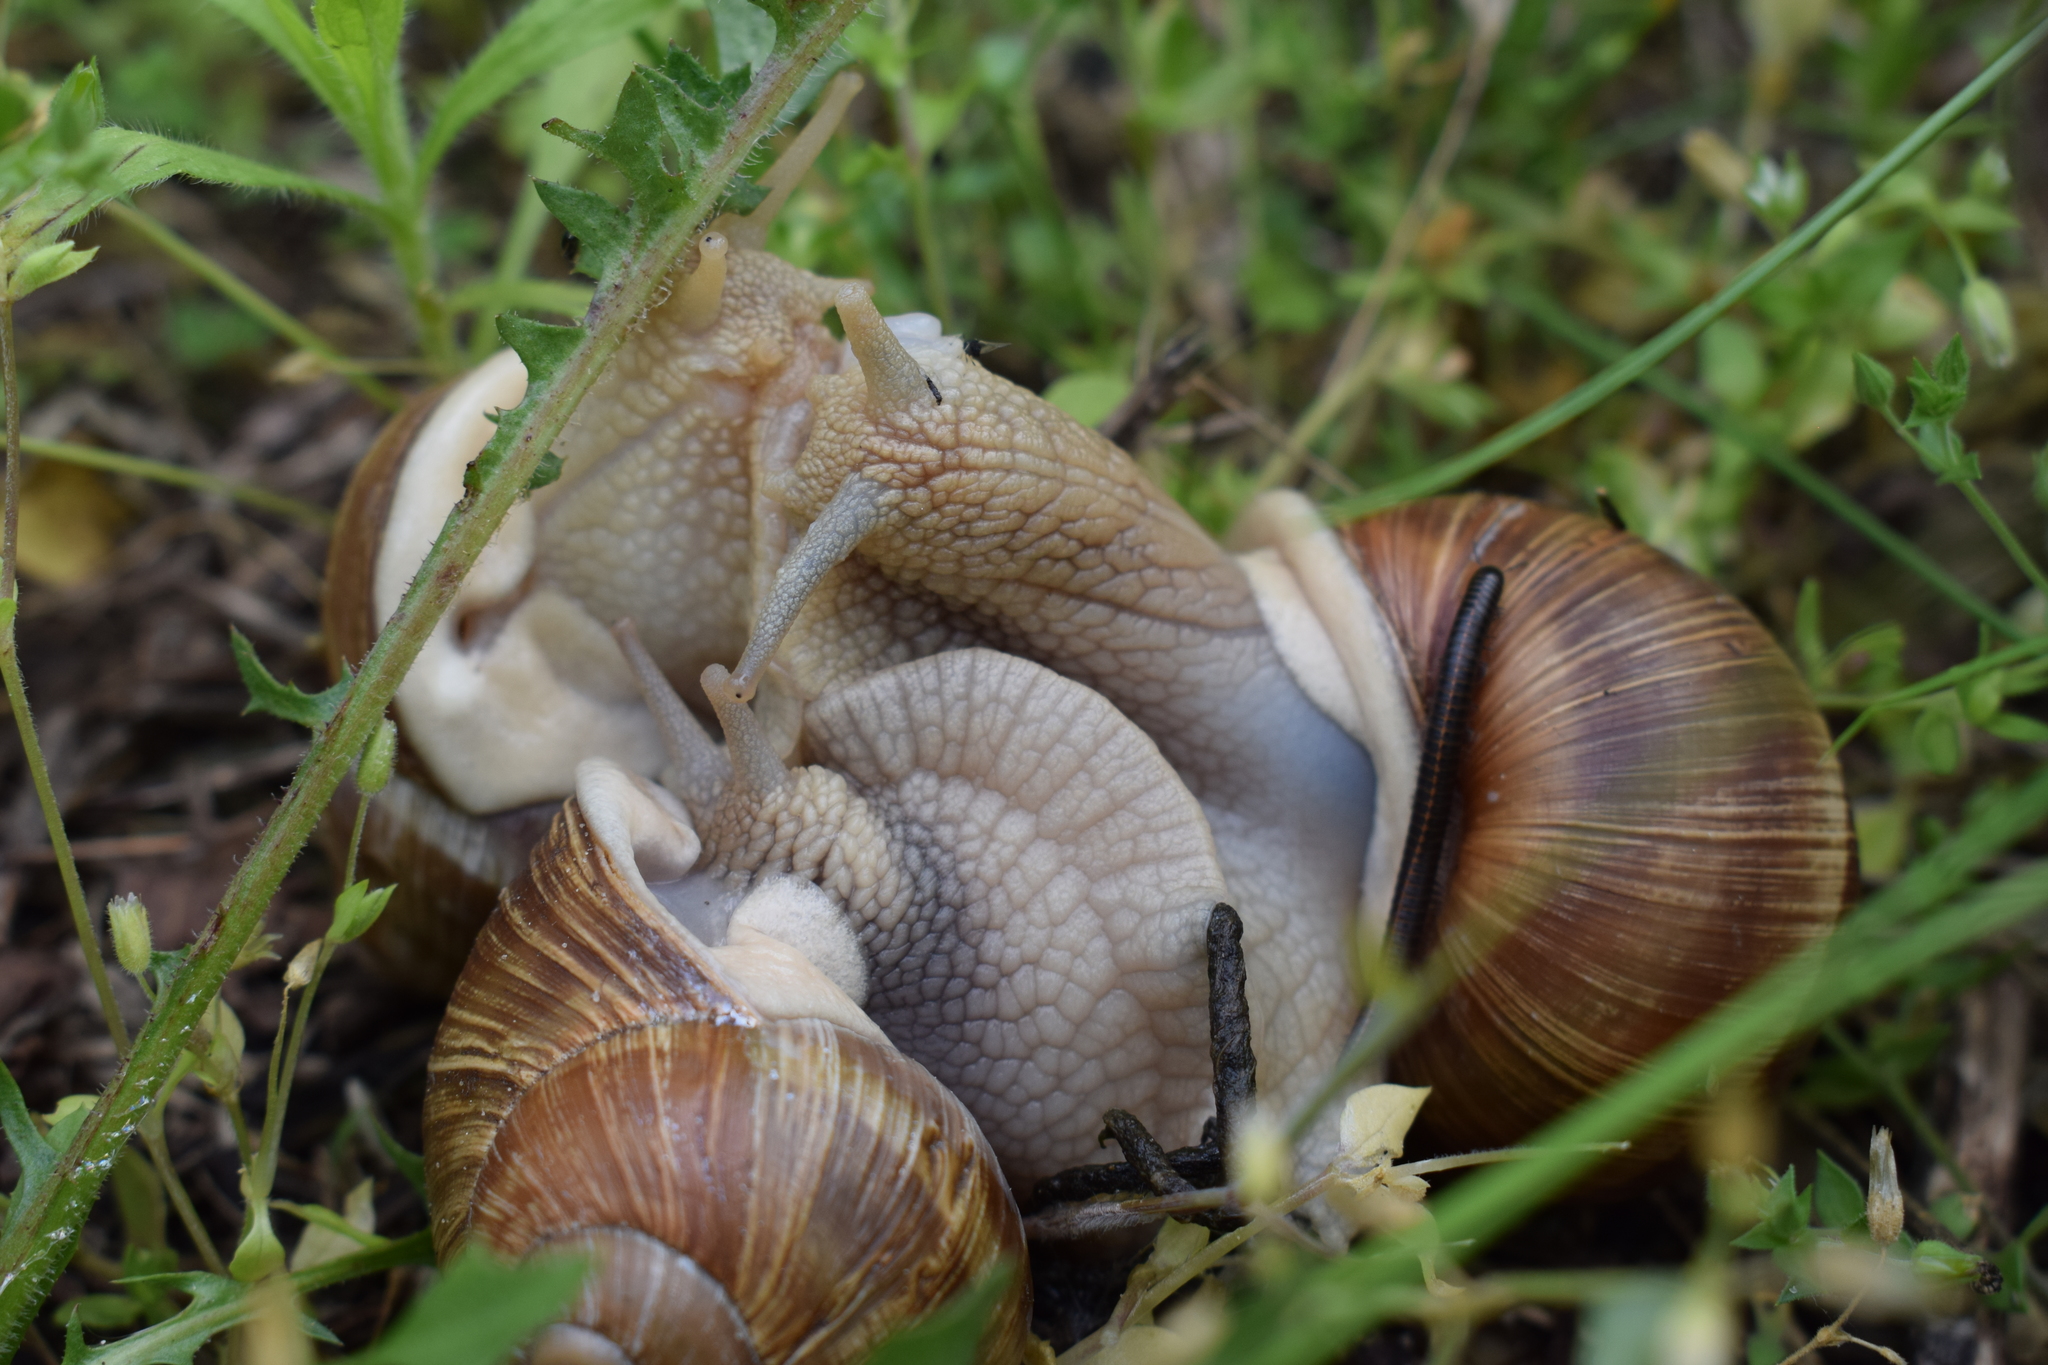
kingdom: Animalia
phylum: Mollusca
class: Gastropoda
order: Stylommatophora
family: Helicidae
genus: Helix
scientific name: Helix pomatia
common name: Roman snail
